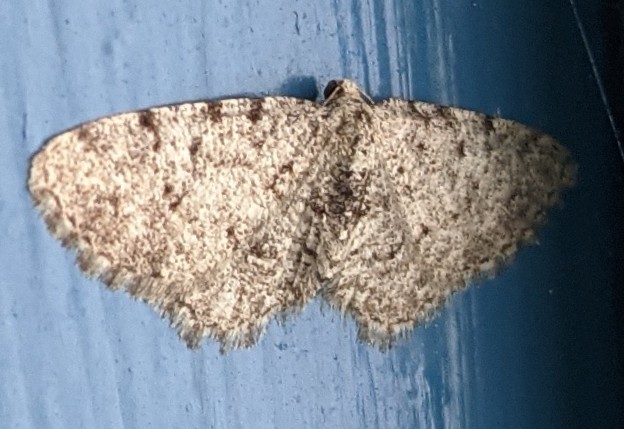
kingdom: Animalia
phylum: Arthropoda
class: Insecta
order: Lepidoptera
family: Geometridae
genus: Aethalura
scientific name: Aethalura intertexta
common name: Four-barred gray
